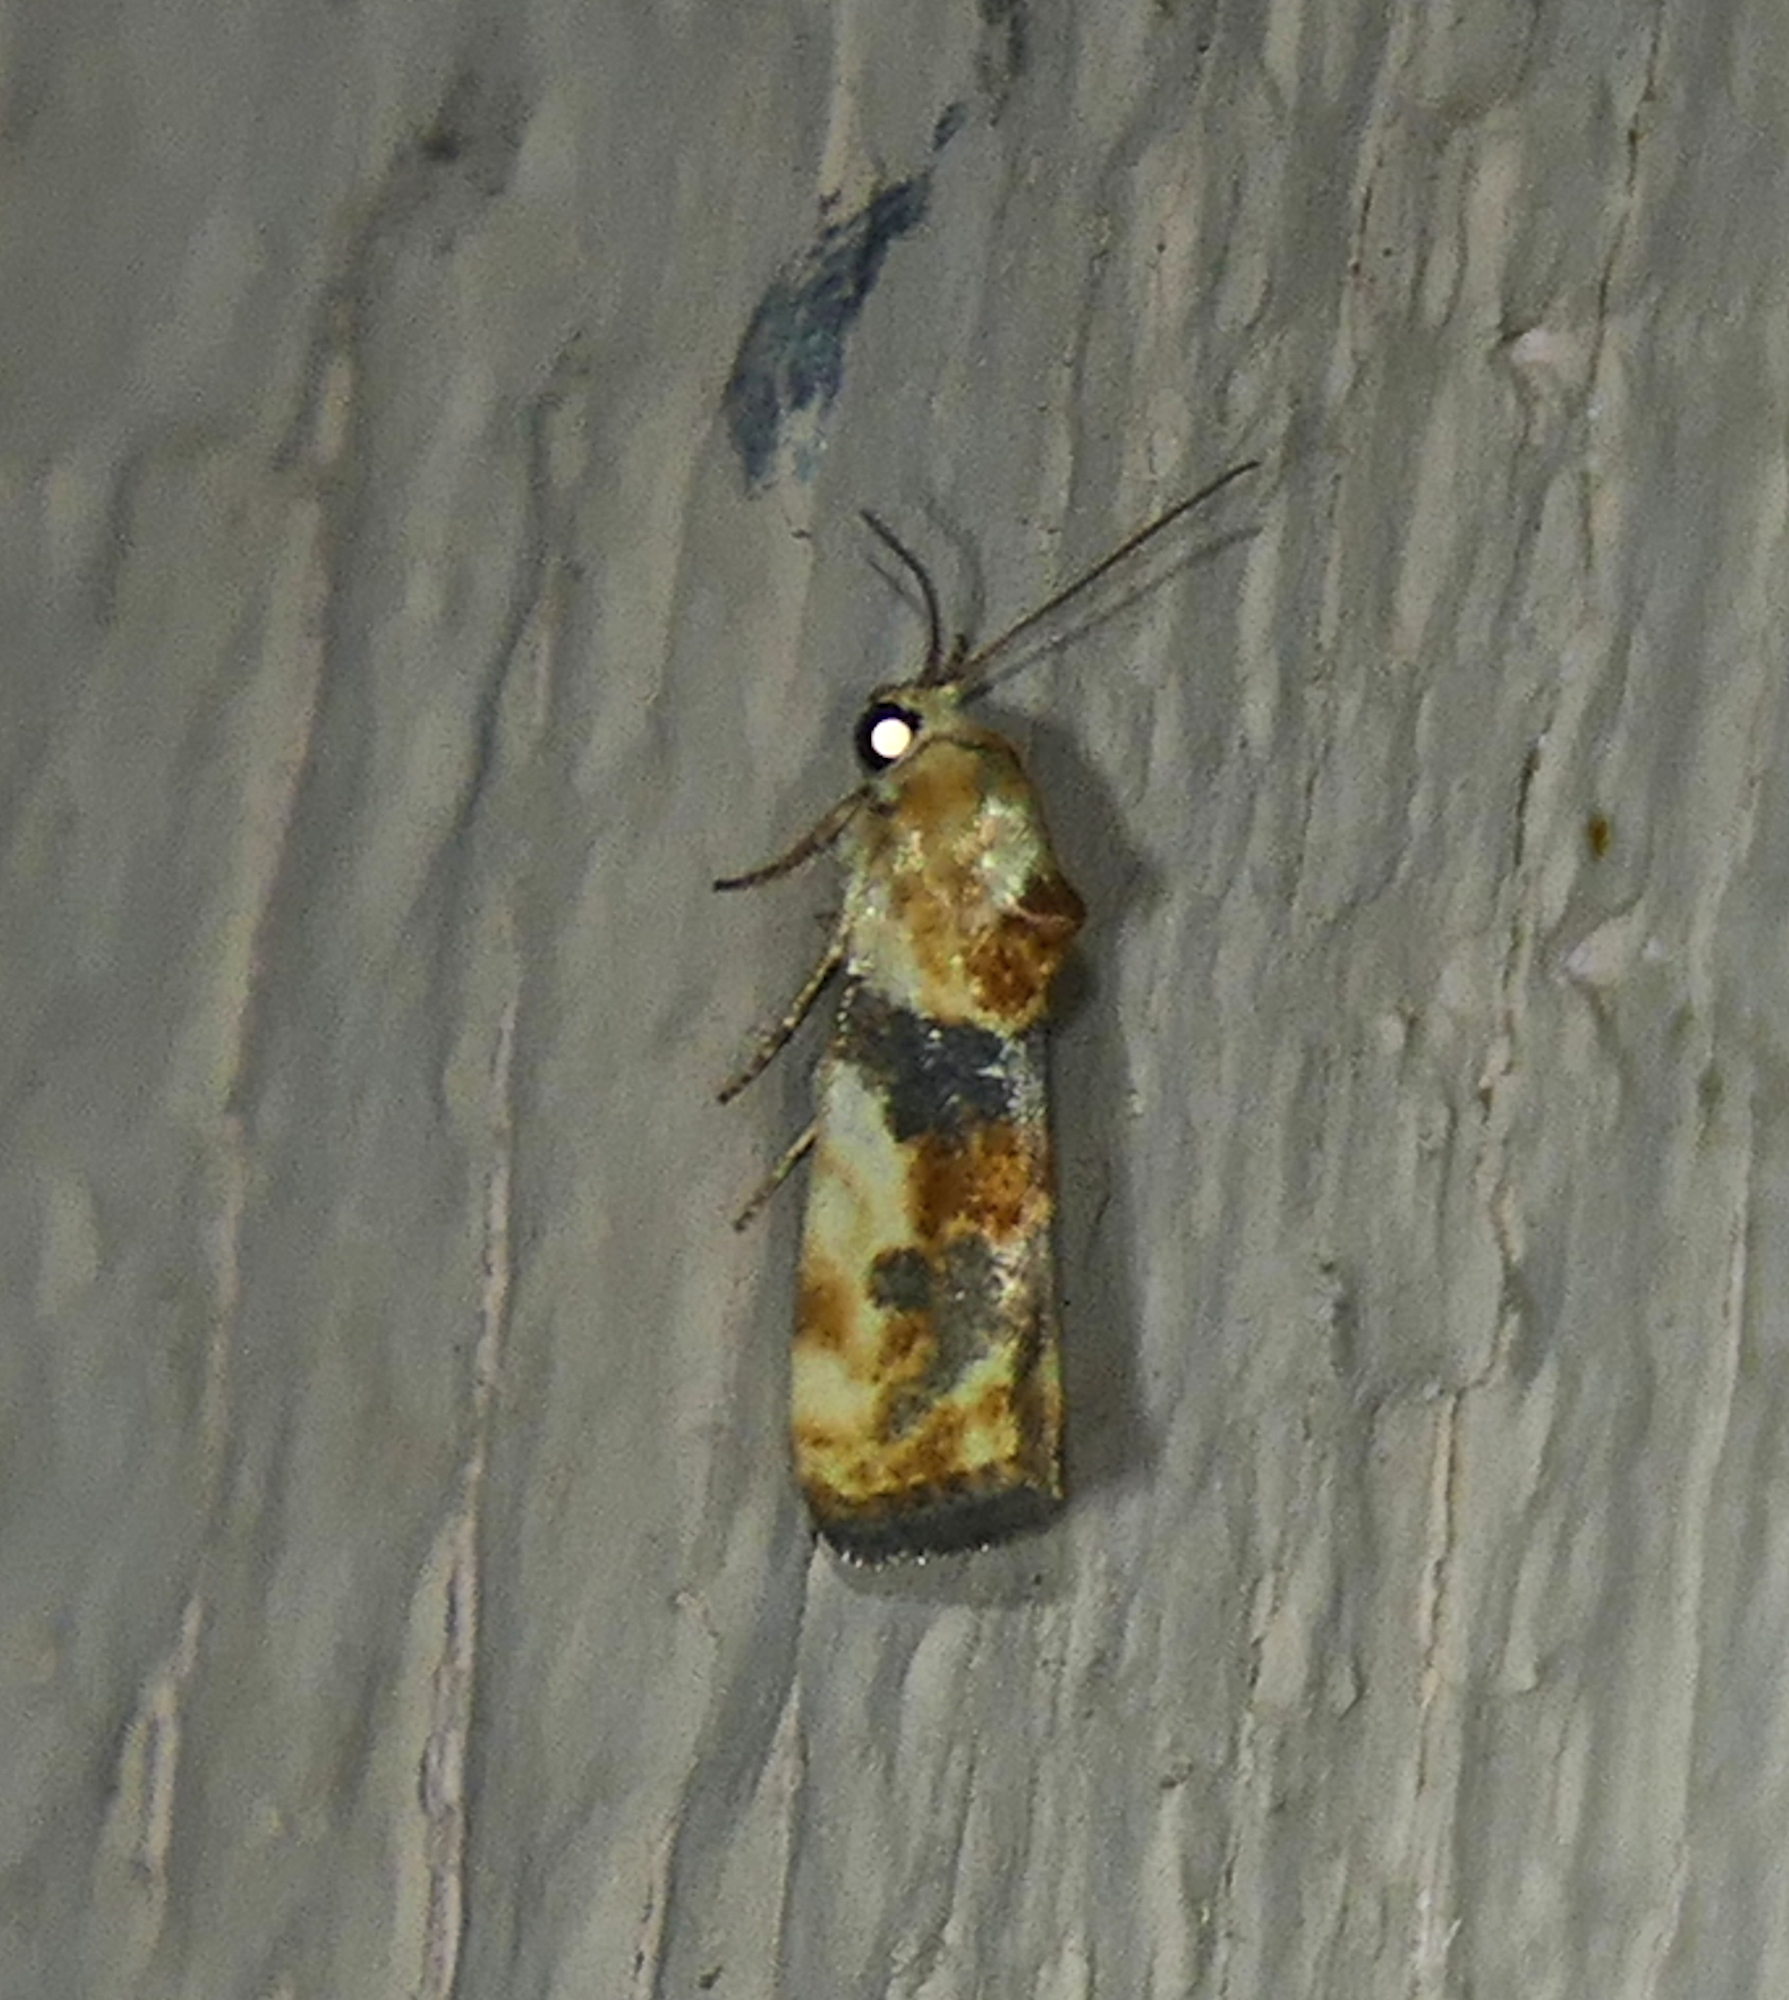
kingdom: Animalia
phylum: Arthropoda
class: Insecta
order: Lepidoptera
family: Noctuidae
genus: Acontia
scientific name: Acontia obatra
